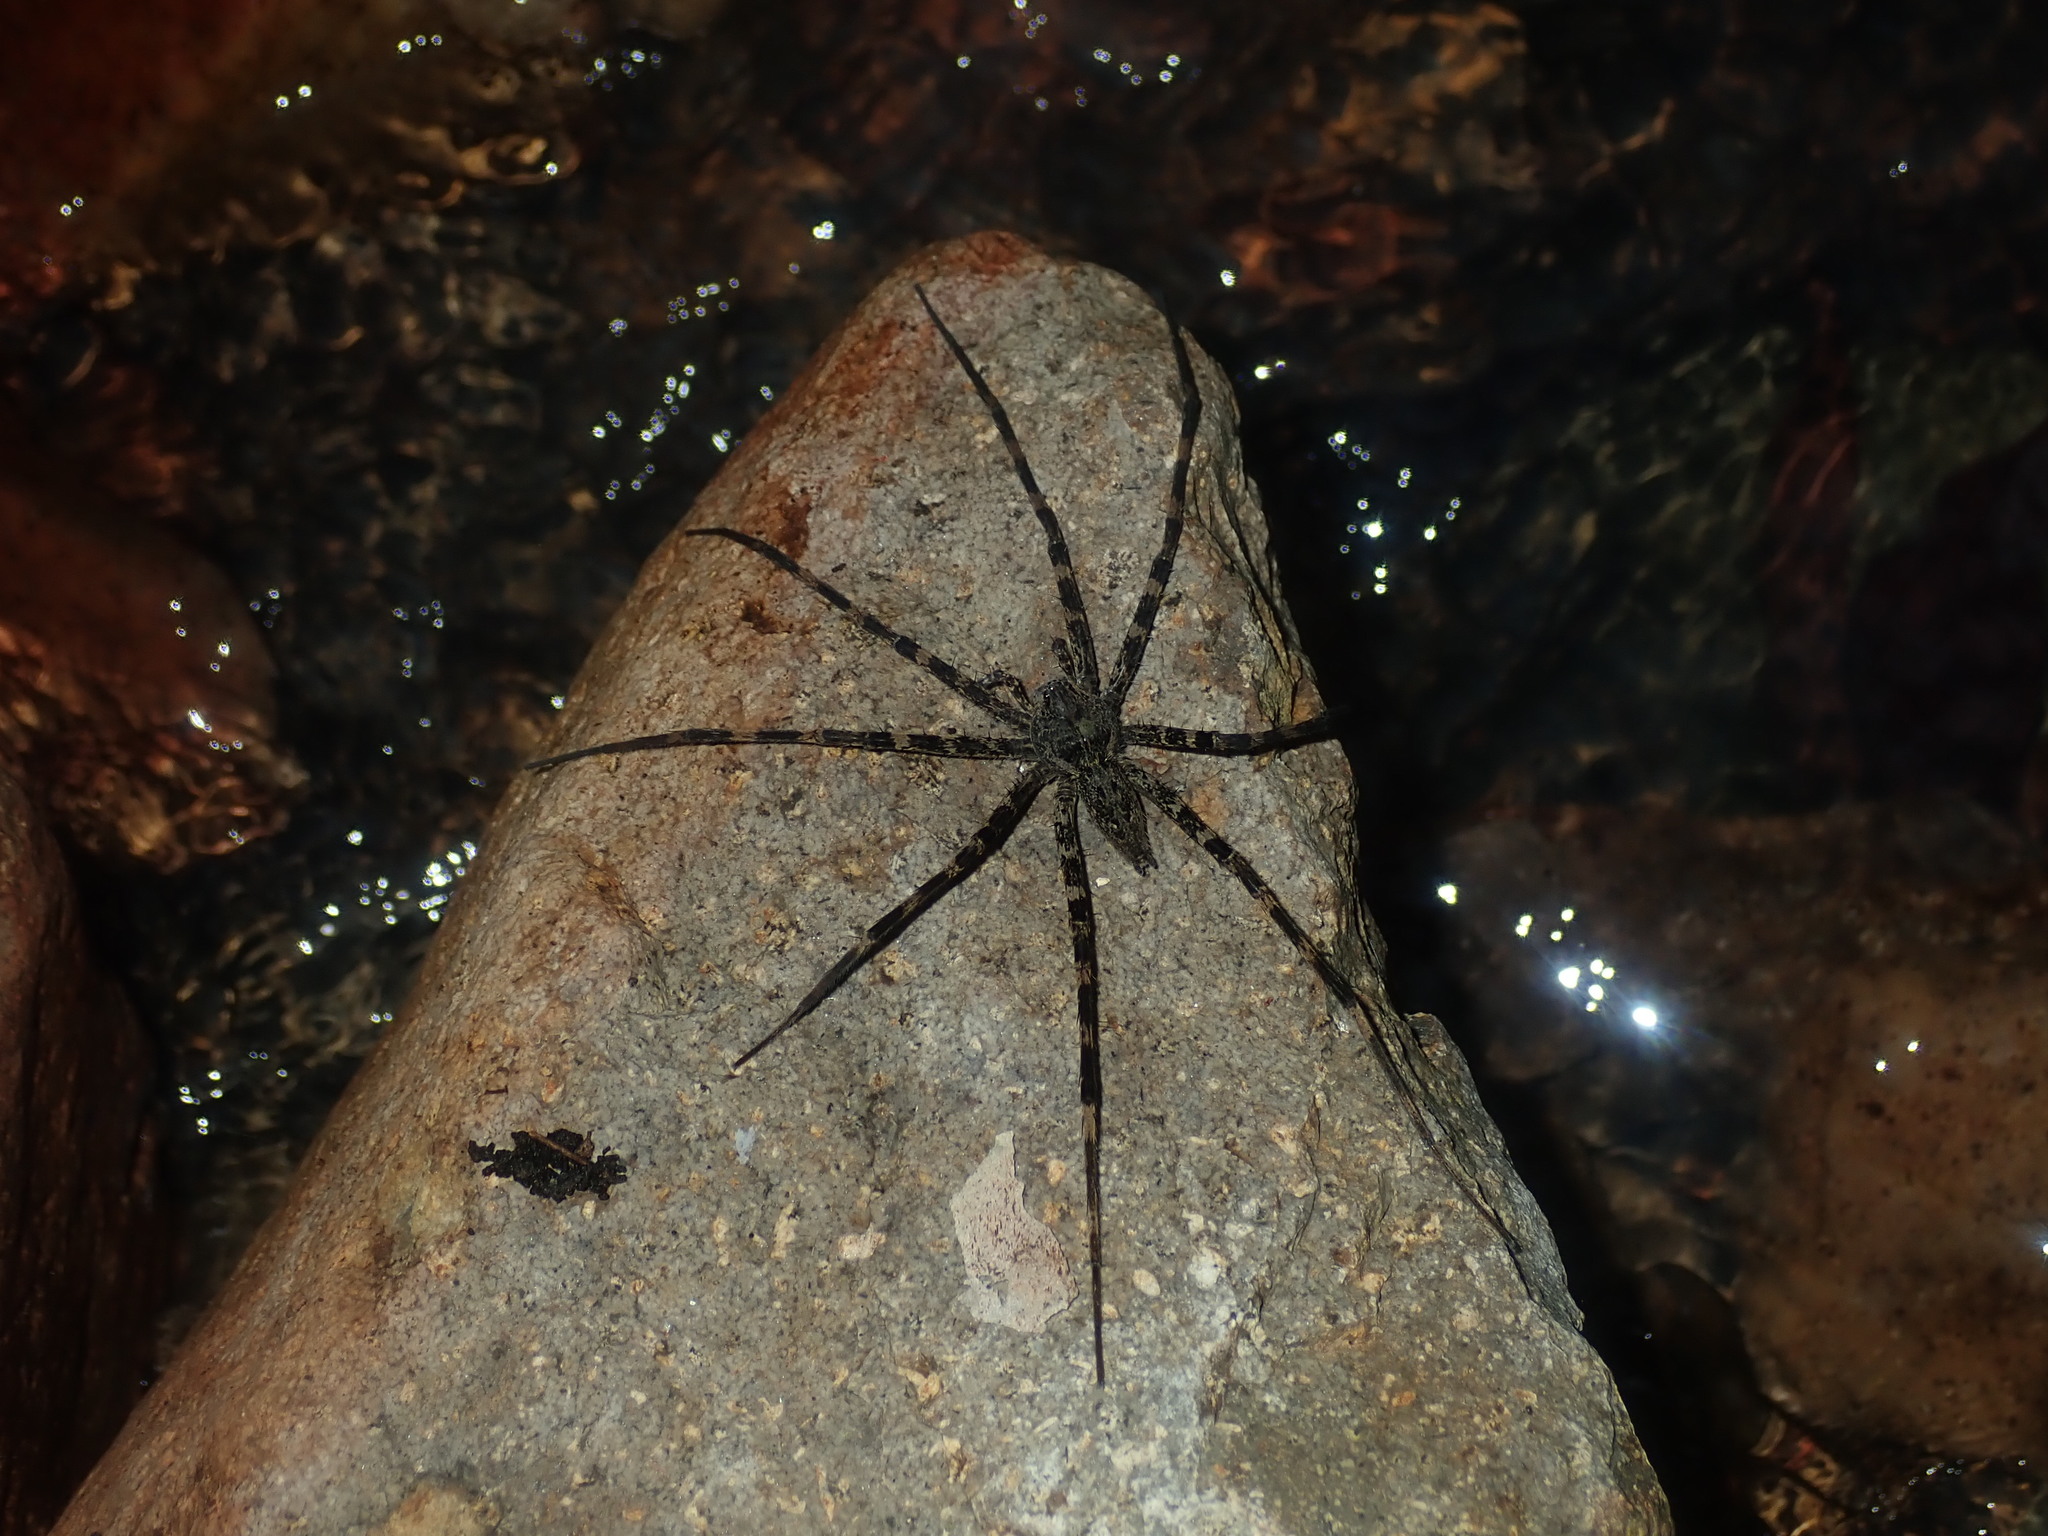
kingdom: Animalia
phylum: Arthropoda
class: Arachnida
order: Araneae
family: Pisauridae
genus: Megadolomedes
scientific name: Megadolomedes trux
